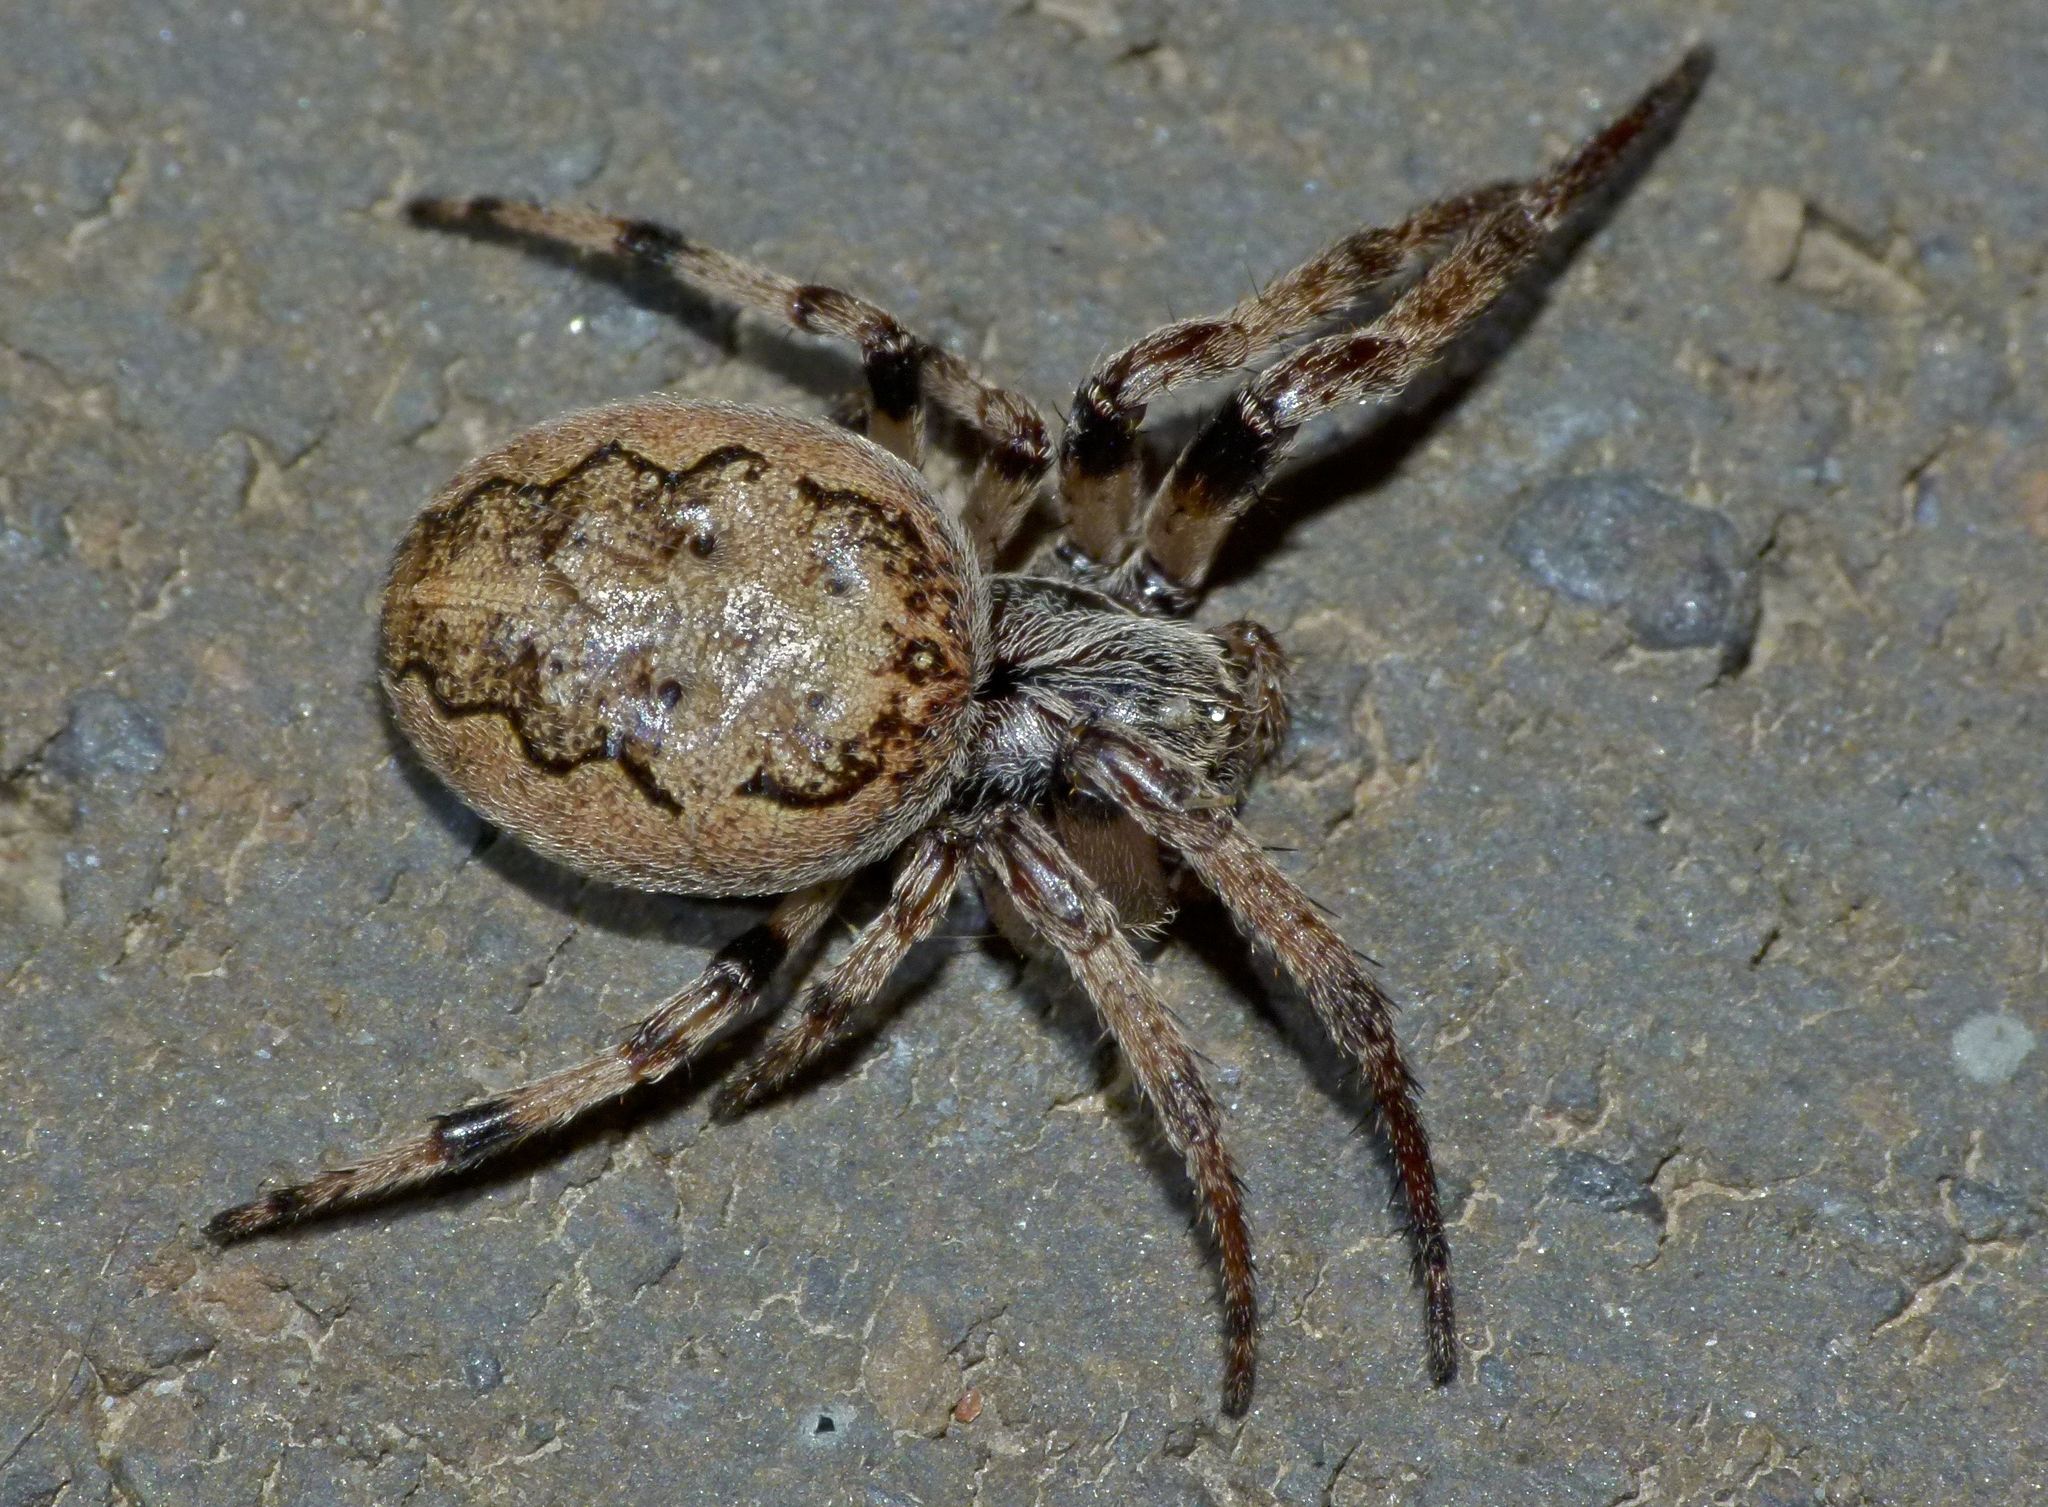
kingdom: Animalia
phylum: Arthropoda
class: Arachnida
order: Araneae
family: Araneidae
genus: Larinioides
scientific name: Larinioides cornutus
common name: Furrow orbweaver
